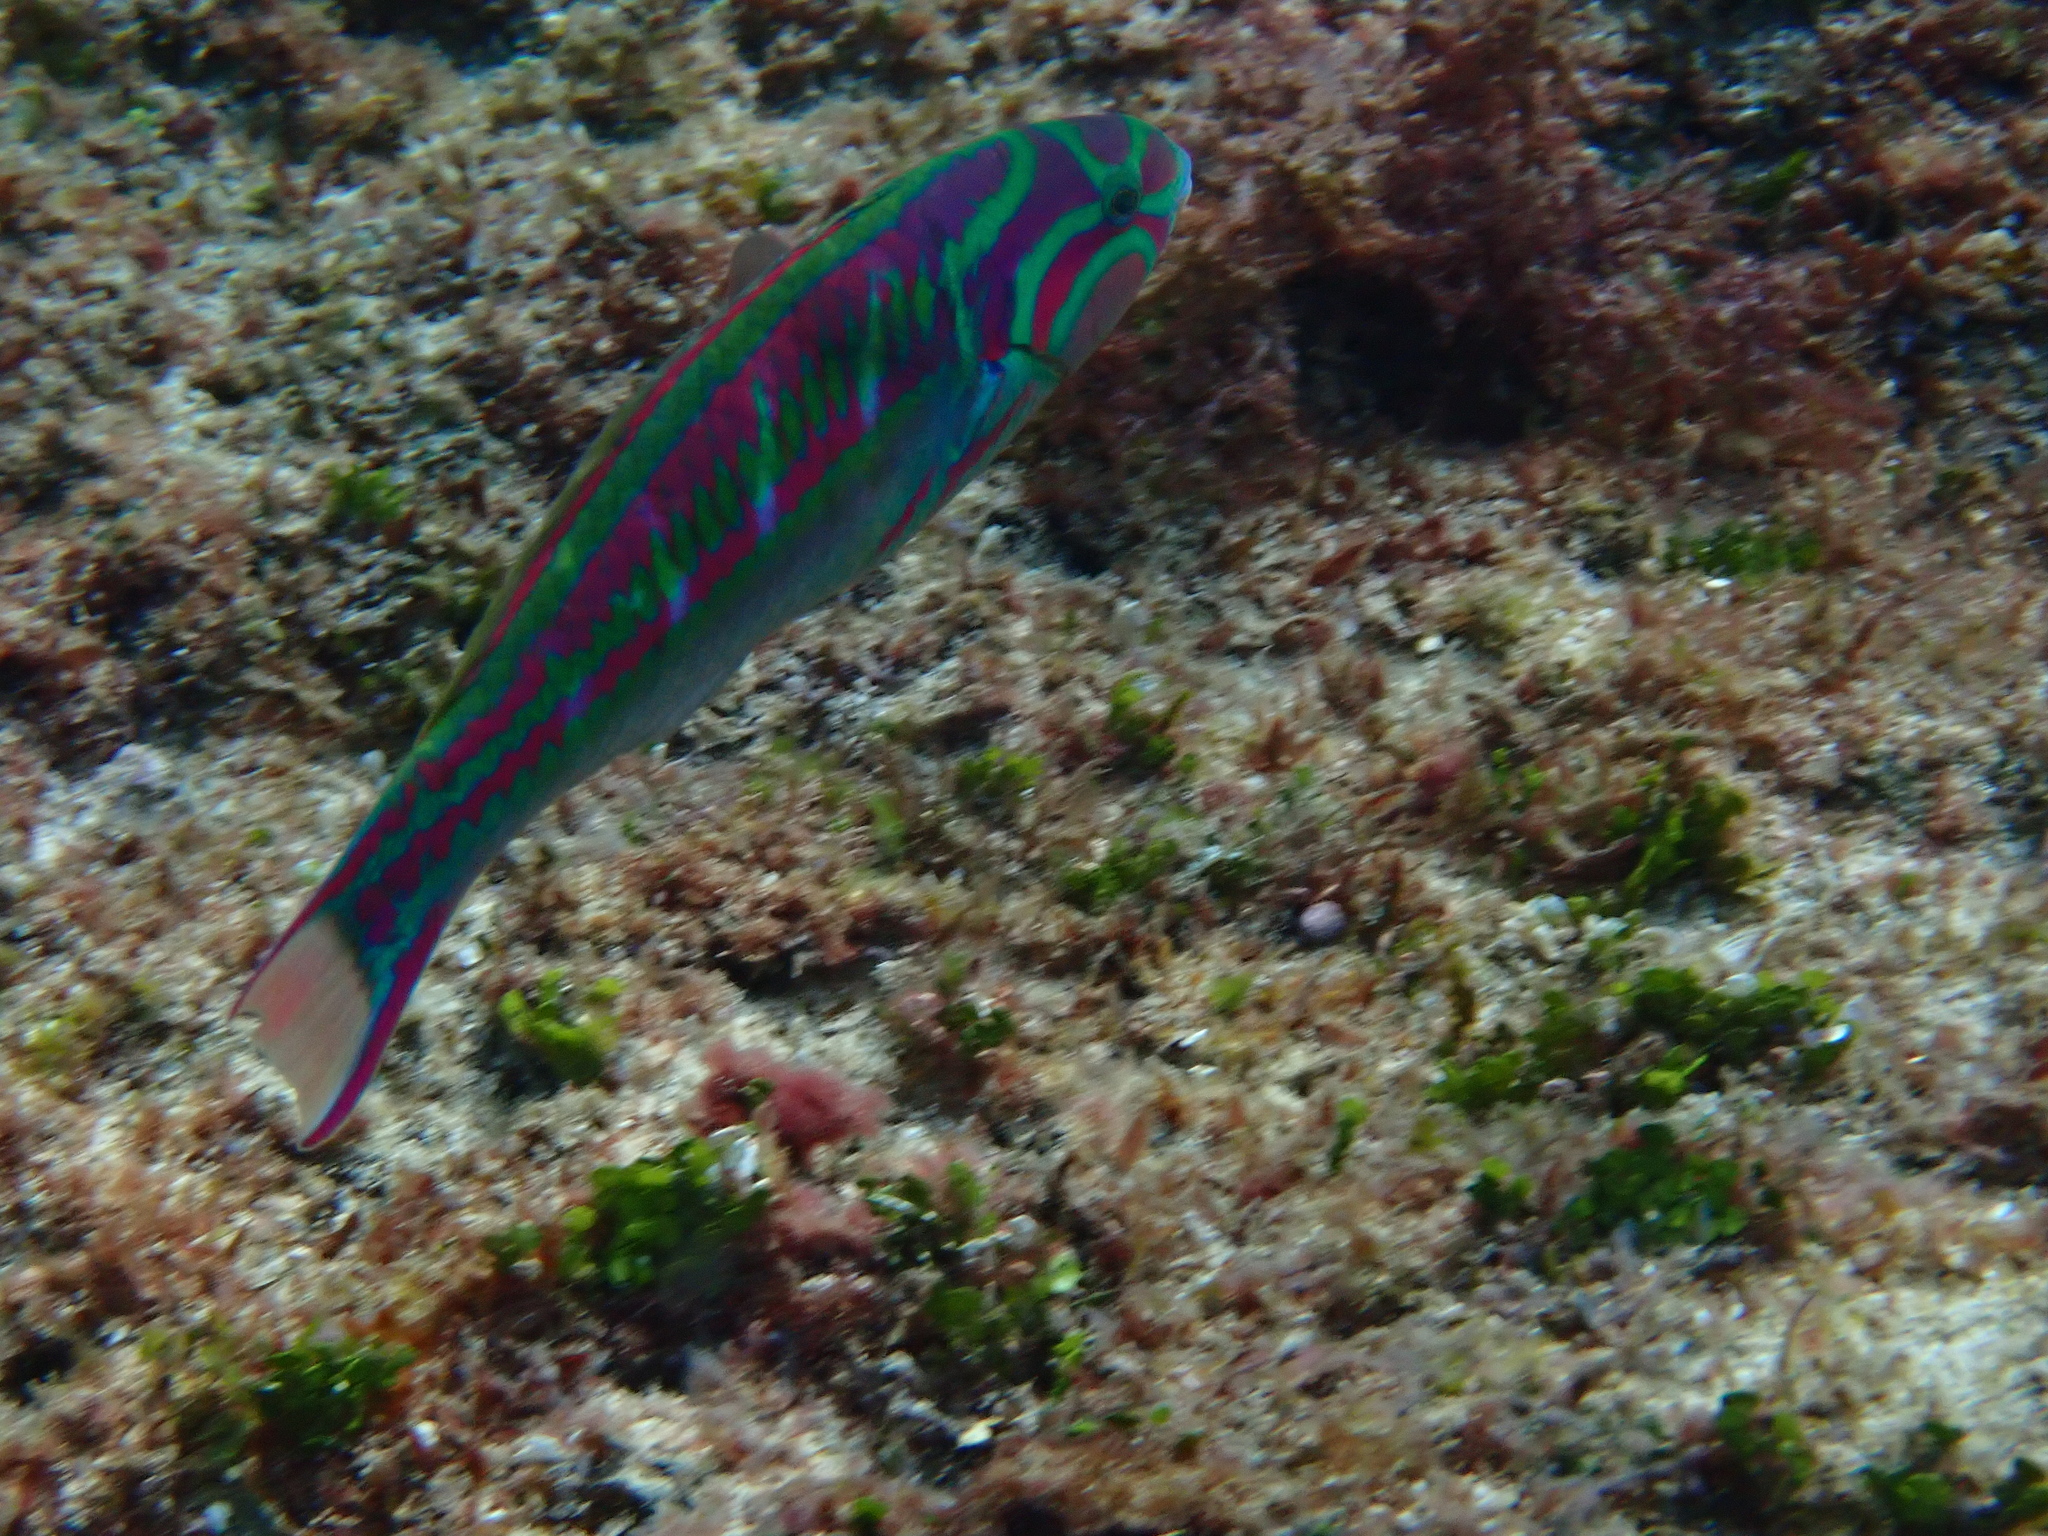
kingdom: Animalia
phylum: Chordata
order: Perciformes
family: Labridae
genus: Thalassoma
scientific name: Thalassoma quinquevittatum
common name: Five striped surge wrasse
